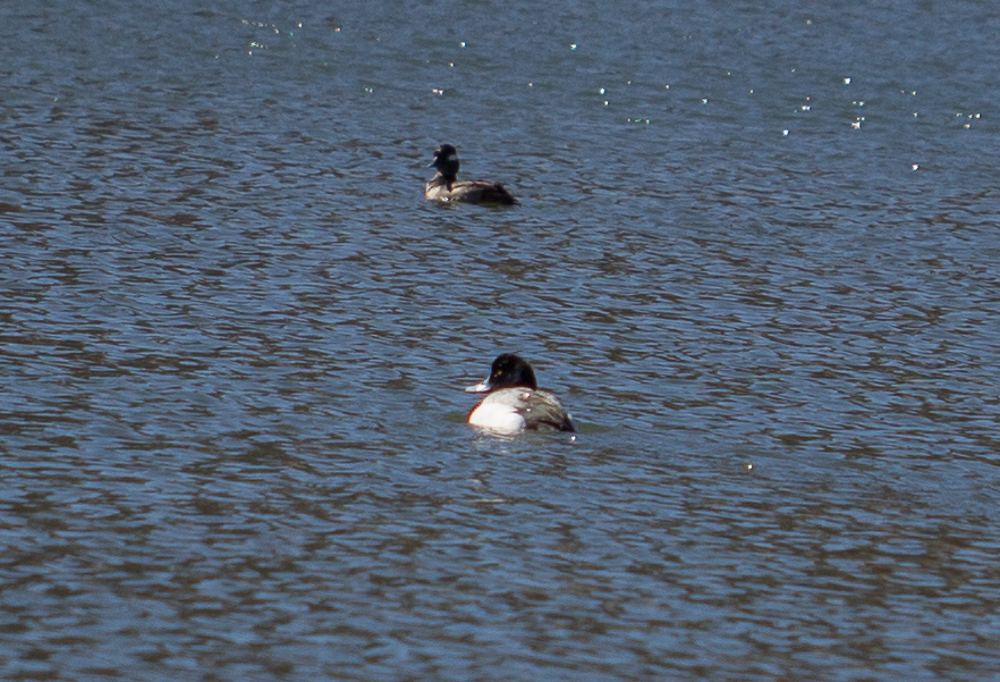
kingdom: Animalia
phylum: Chordata
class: Aves
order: Anseriformes
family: Anatidae
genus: Aythya
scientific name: Aythya marila
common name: Greater scaup
